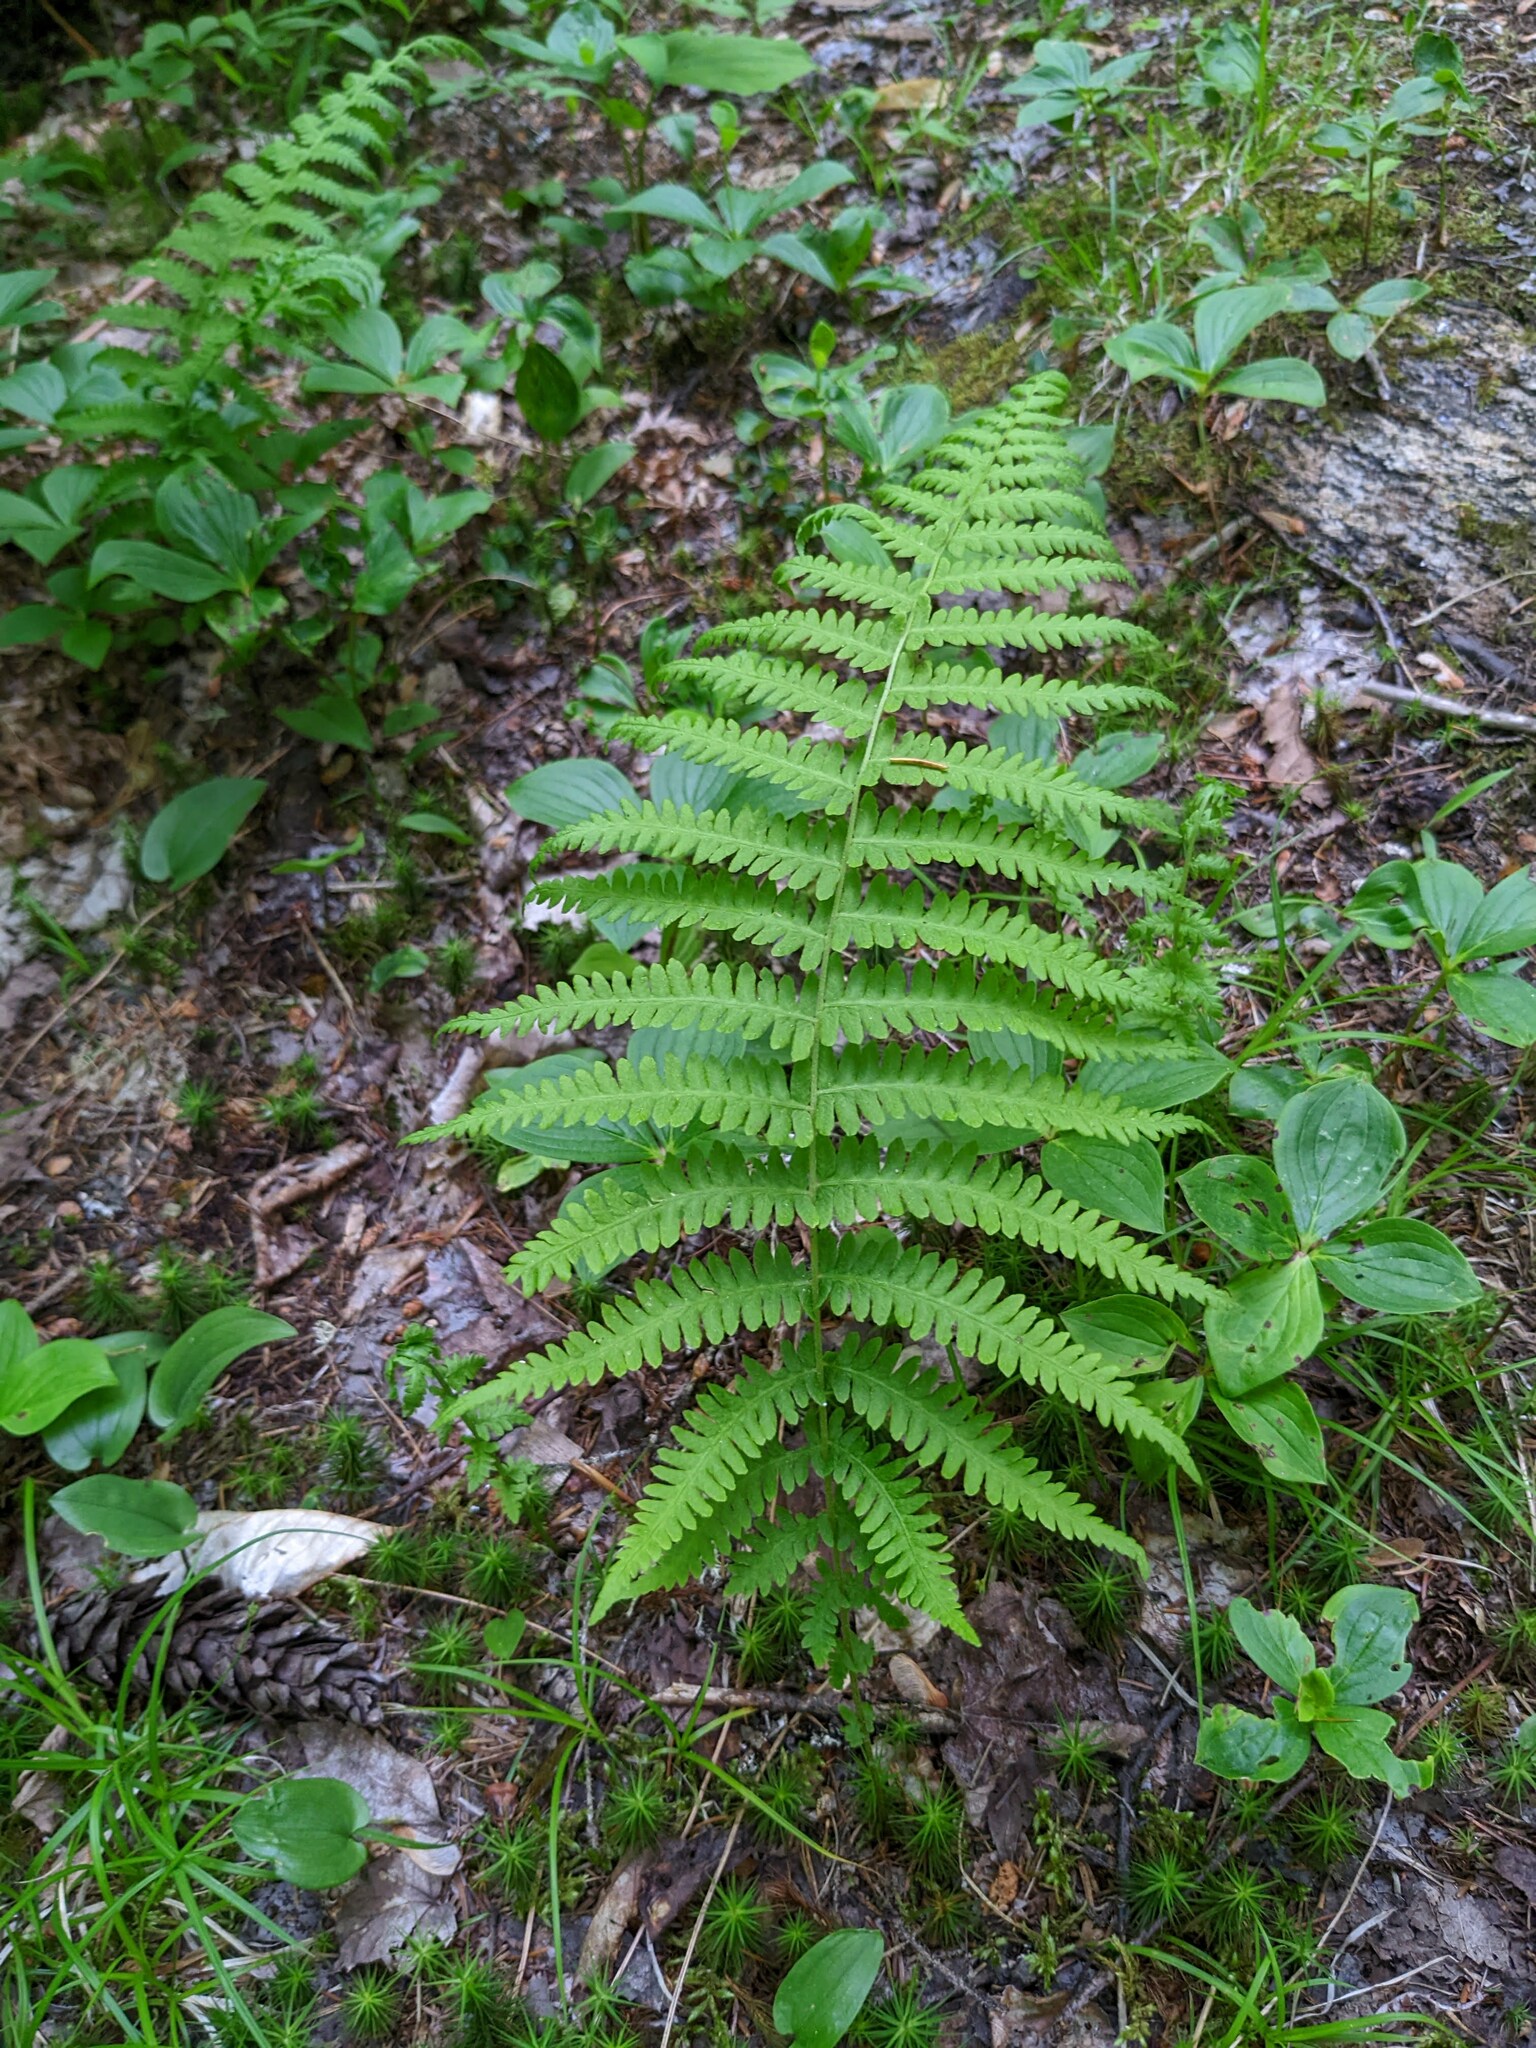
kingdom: Plantae
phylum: Tracheophyta
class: Polypodiopsida
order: Polypodiales
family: Thelypteridaceae
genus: Amauropelta
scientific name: Amauropelta noveboracensis
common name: New york fern
